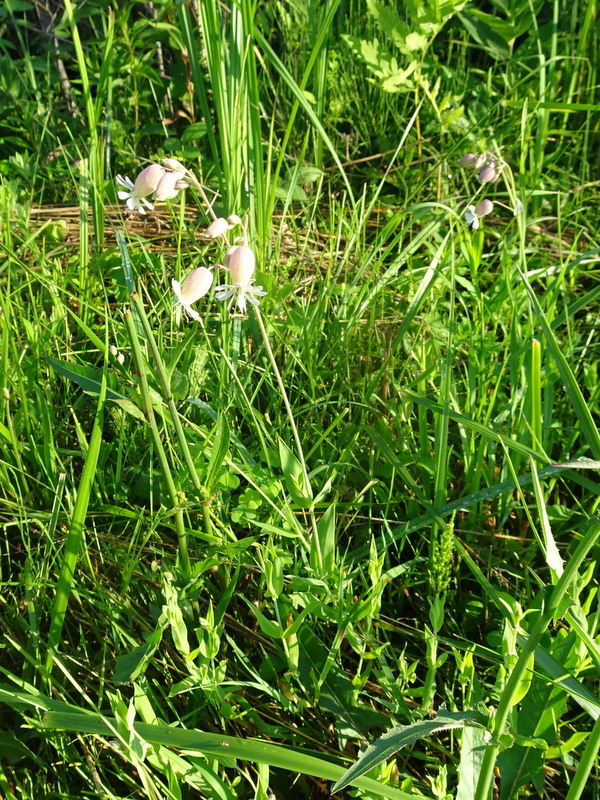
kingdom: Plantae
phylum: Tracheophyta
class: Magnoliopsida
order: Caryophyllales
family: Caryophyllaceae
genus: Silene
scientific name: Silene vulgaris
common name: Bladder campion
